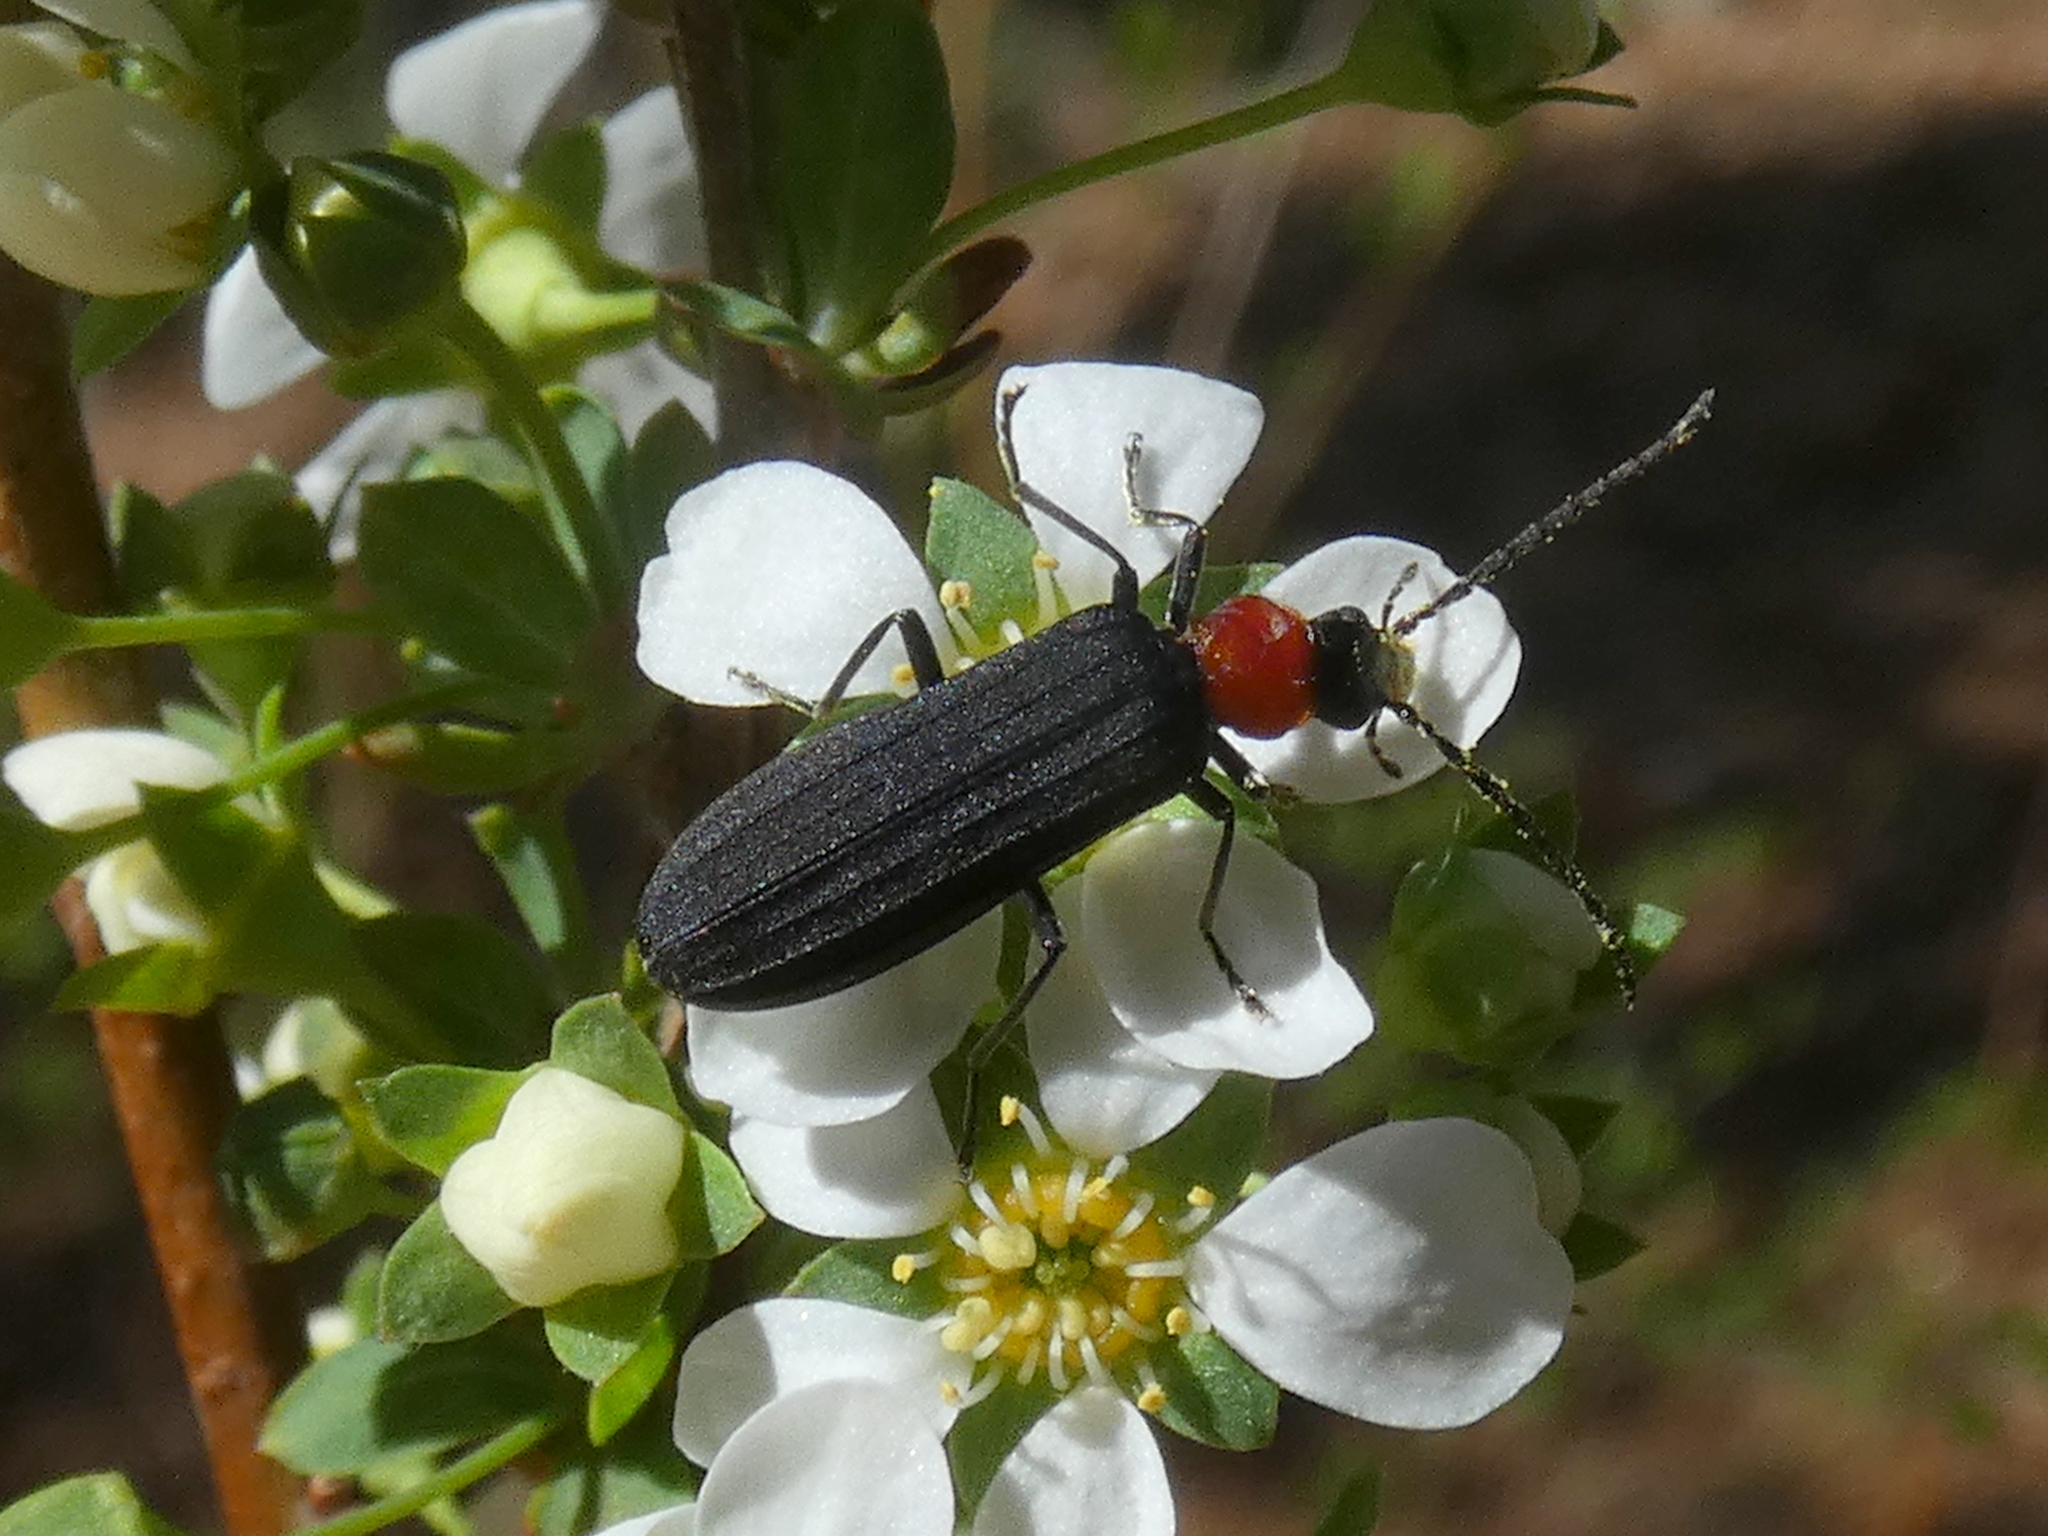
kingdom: Animalia
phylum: Arthropoda
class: Insecta
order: Coleoptera
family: Oedemeridae
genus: Ischnomera
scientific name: Ischnomera
